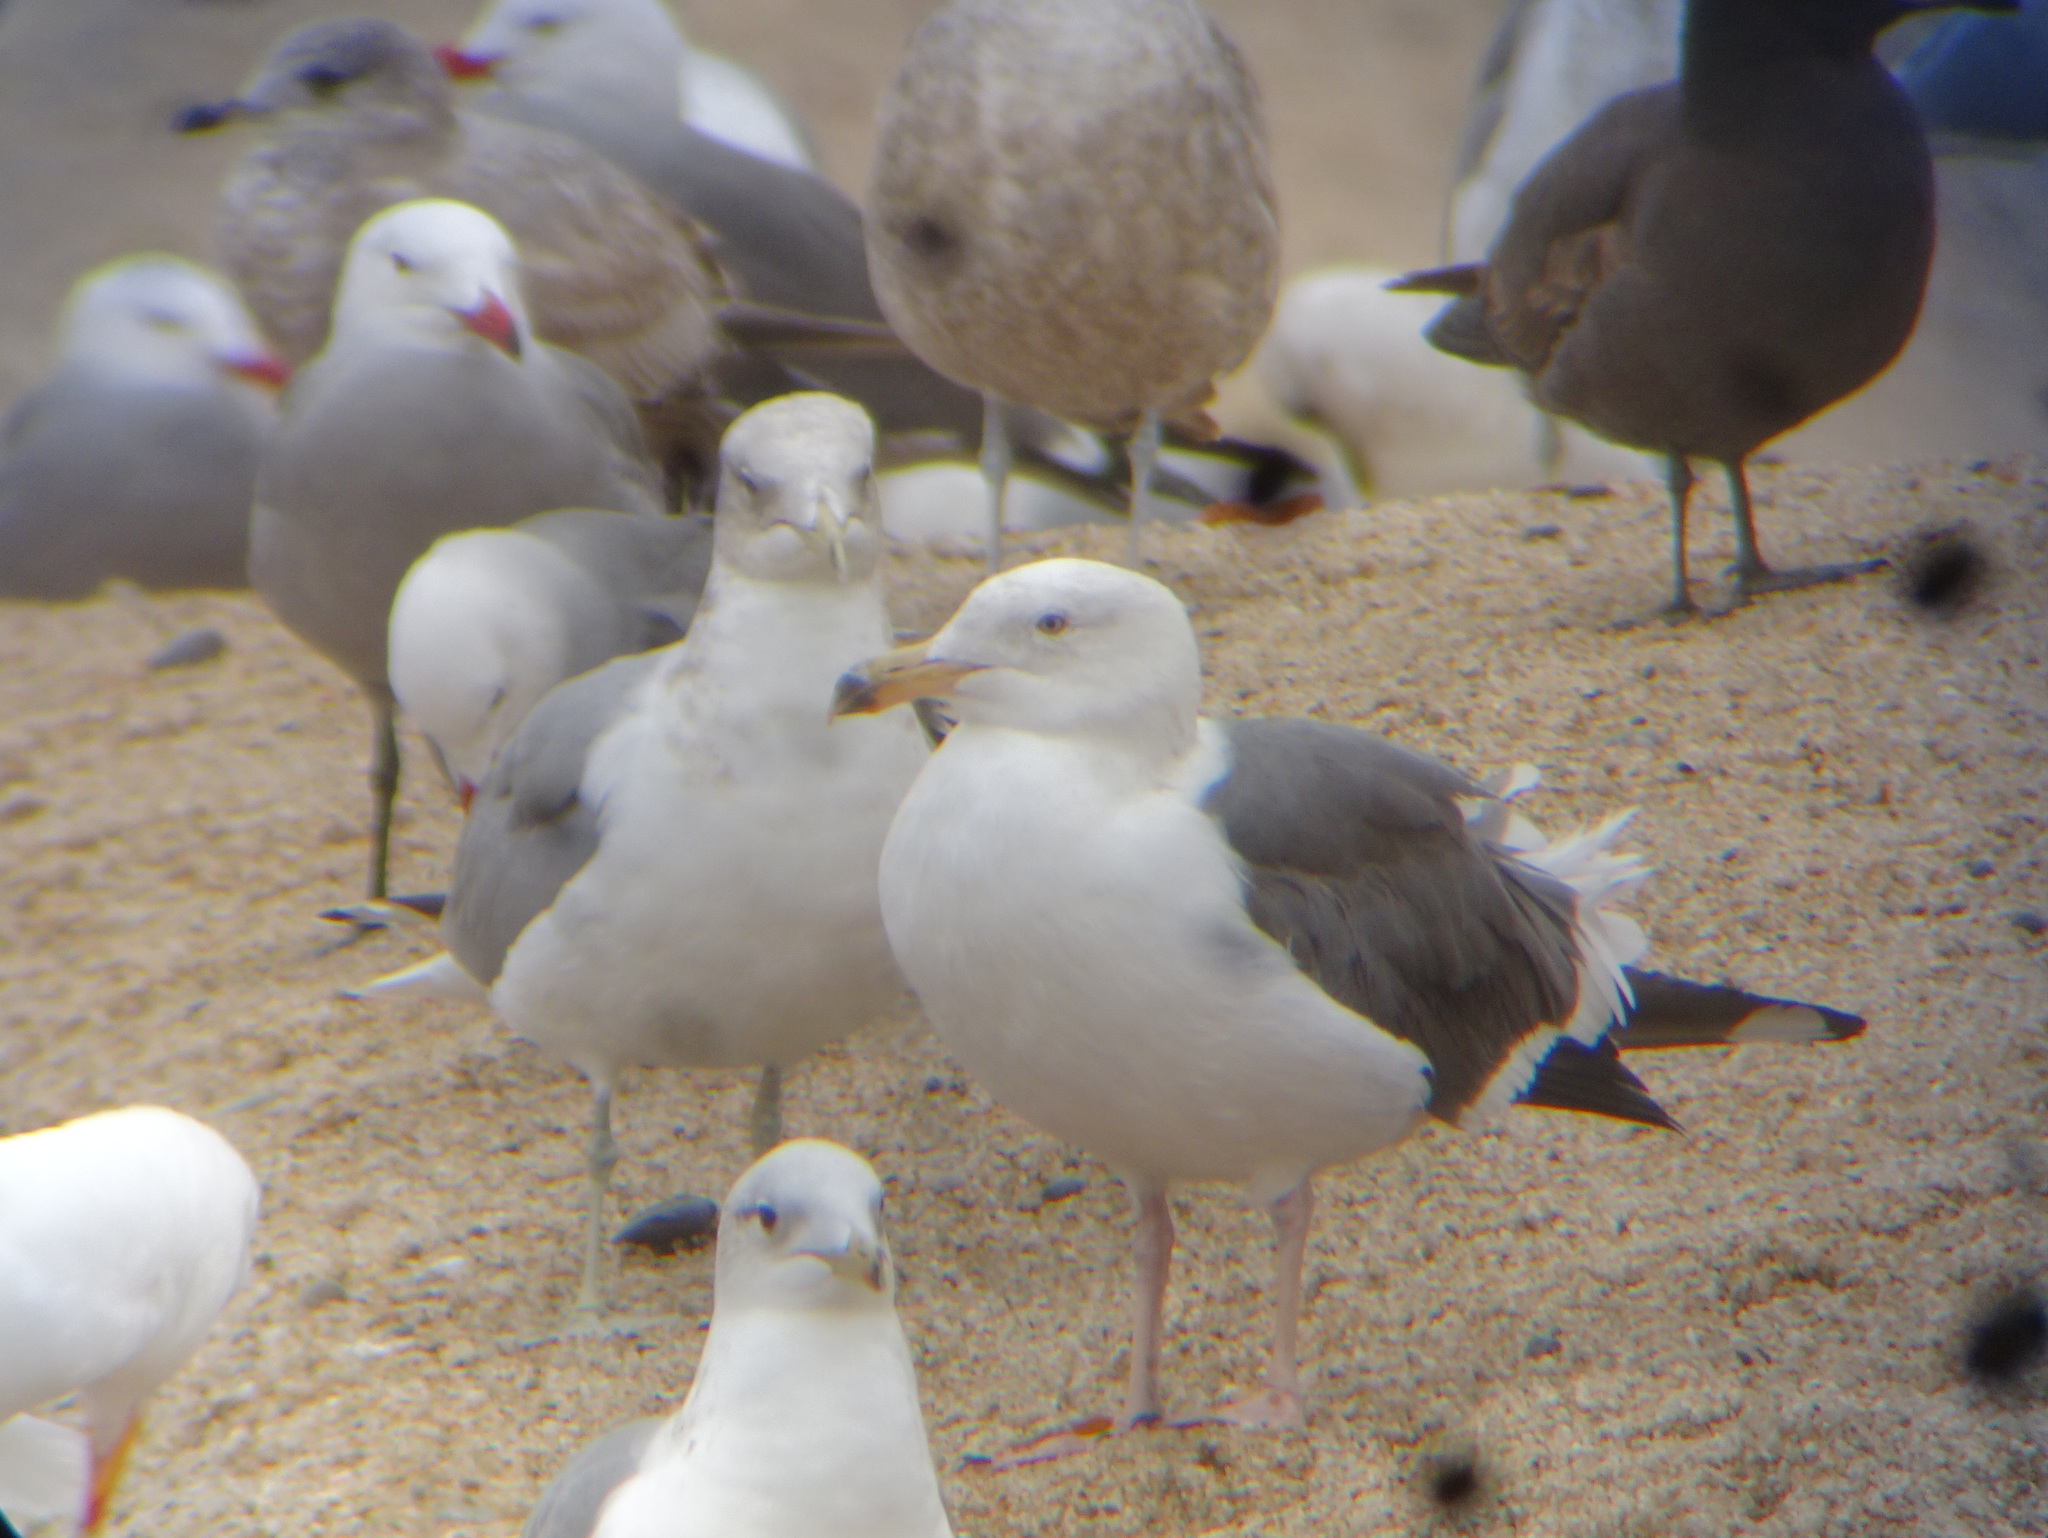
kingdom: Animalia
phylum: Chordata
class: Aves
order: Charadriiformes
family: Laridae
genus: Larus
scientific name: Larus occidentalis
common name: Western gull
